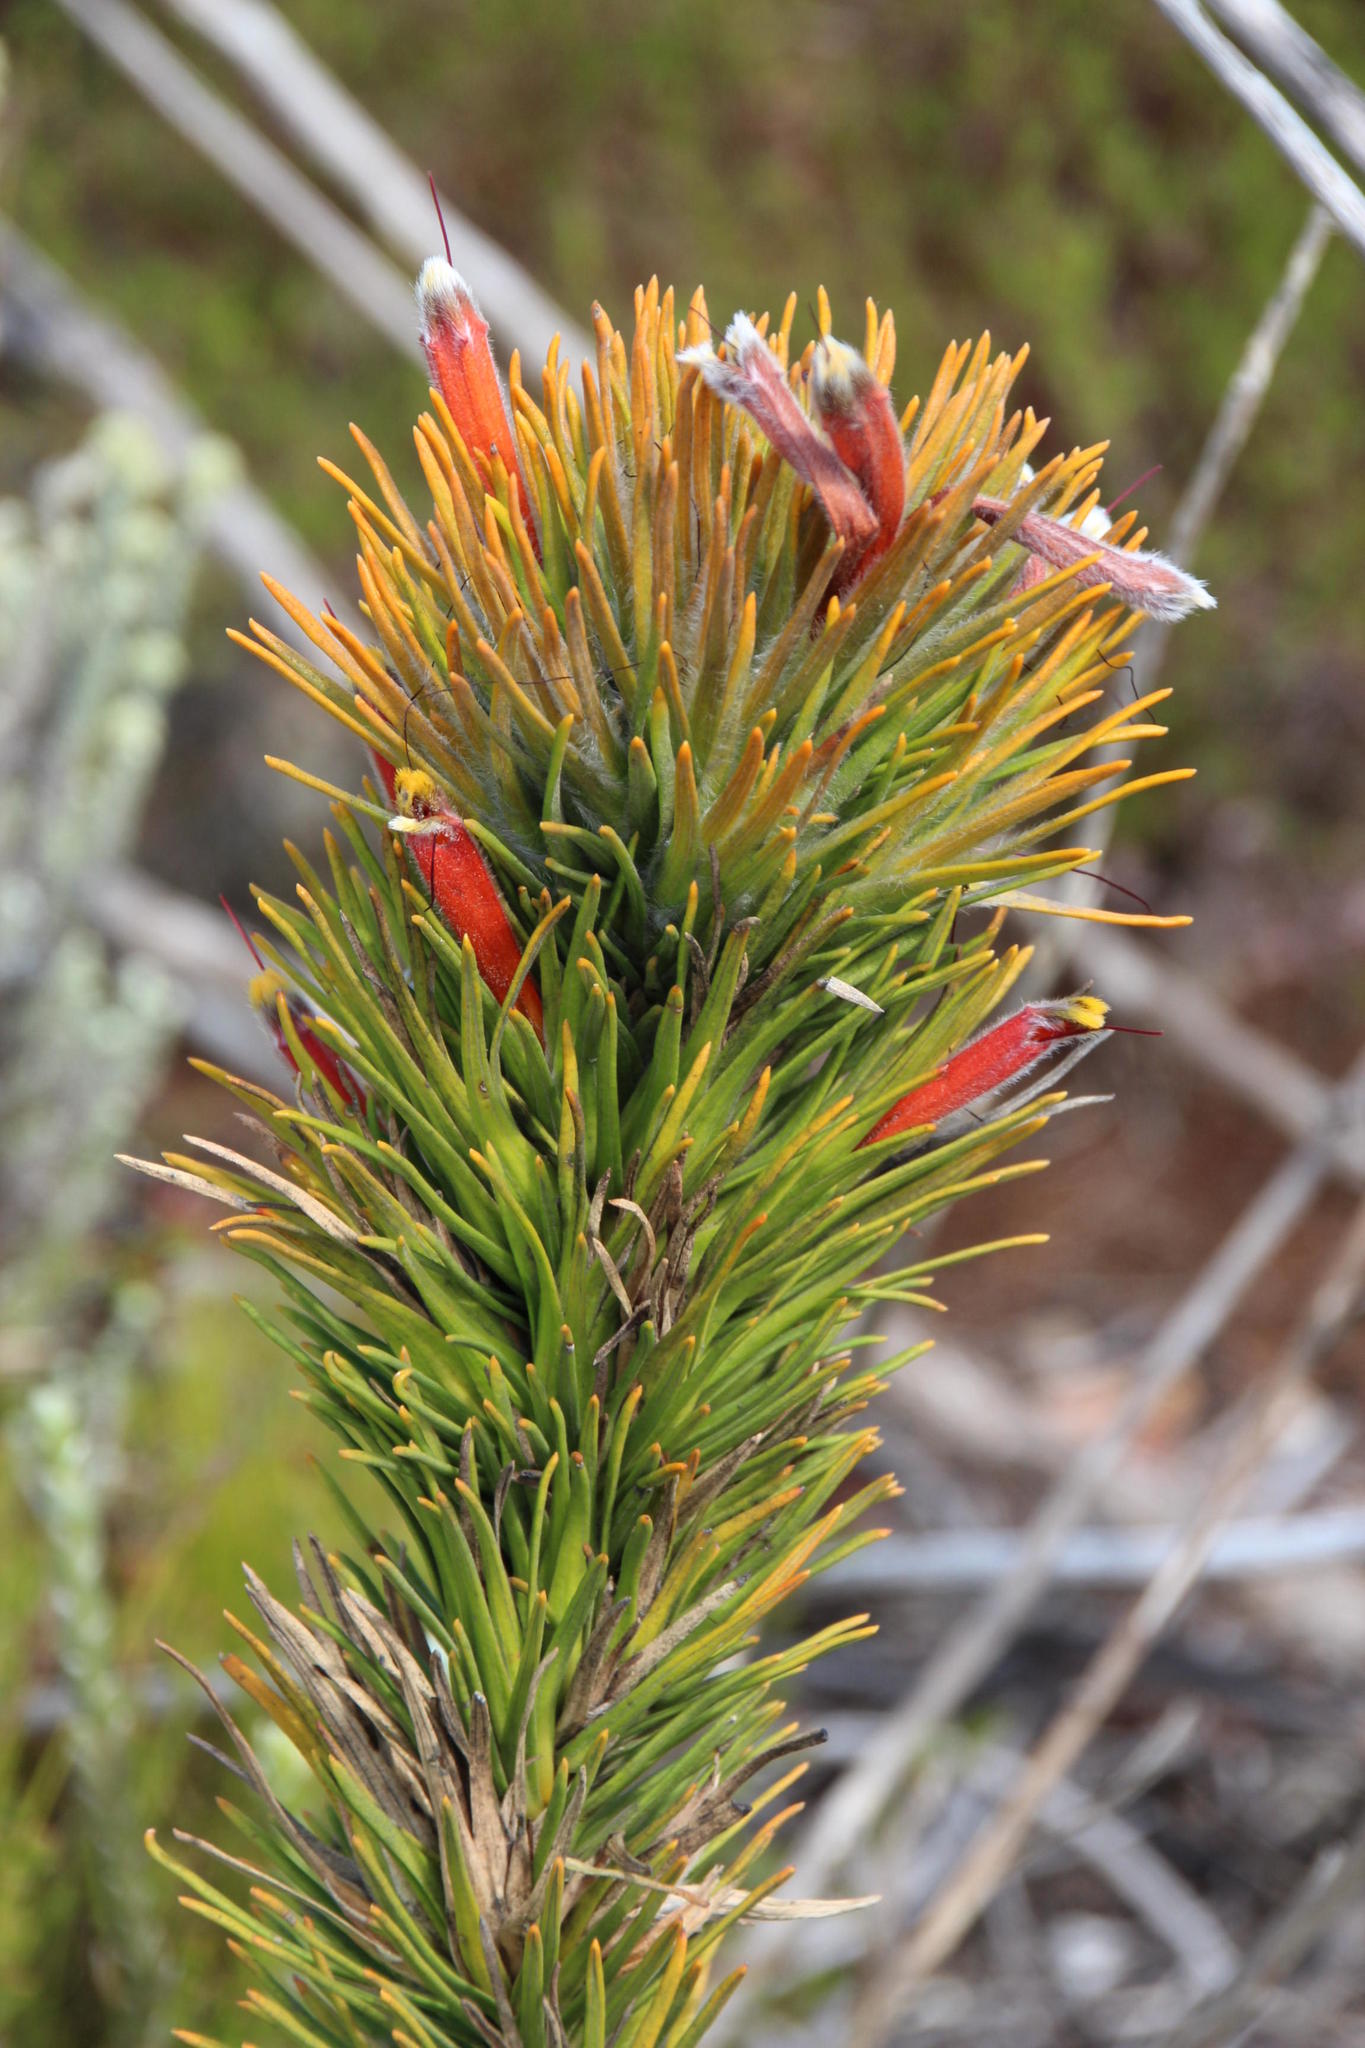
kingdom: Plantae
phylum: Tracheophyta
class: Magnoliopsida
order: Lamiales
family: Stilbaceae
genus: Retzia
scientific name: Retzia capensis
